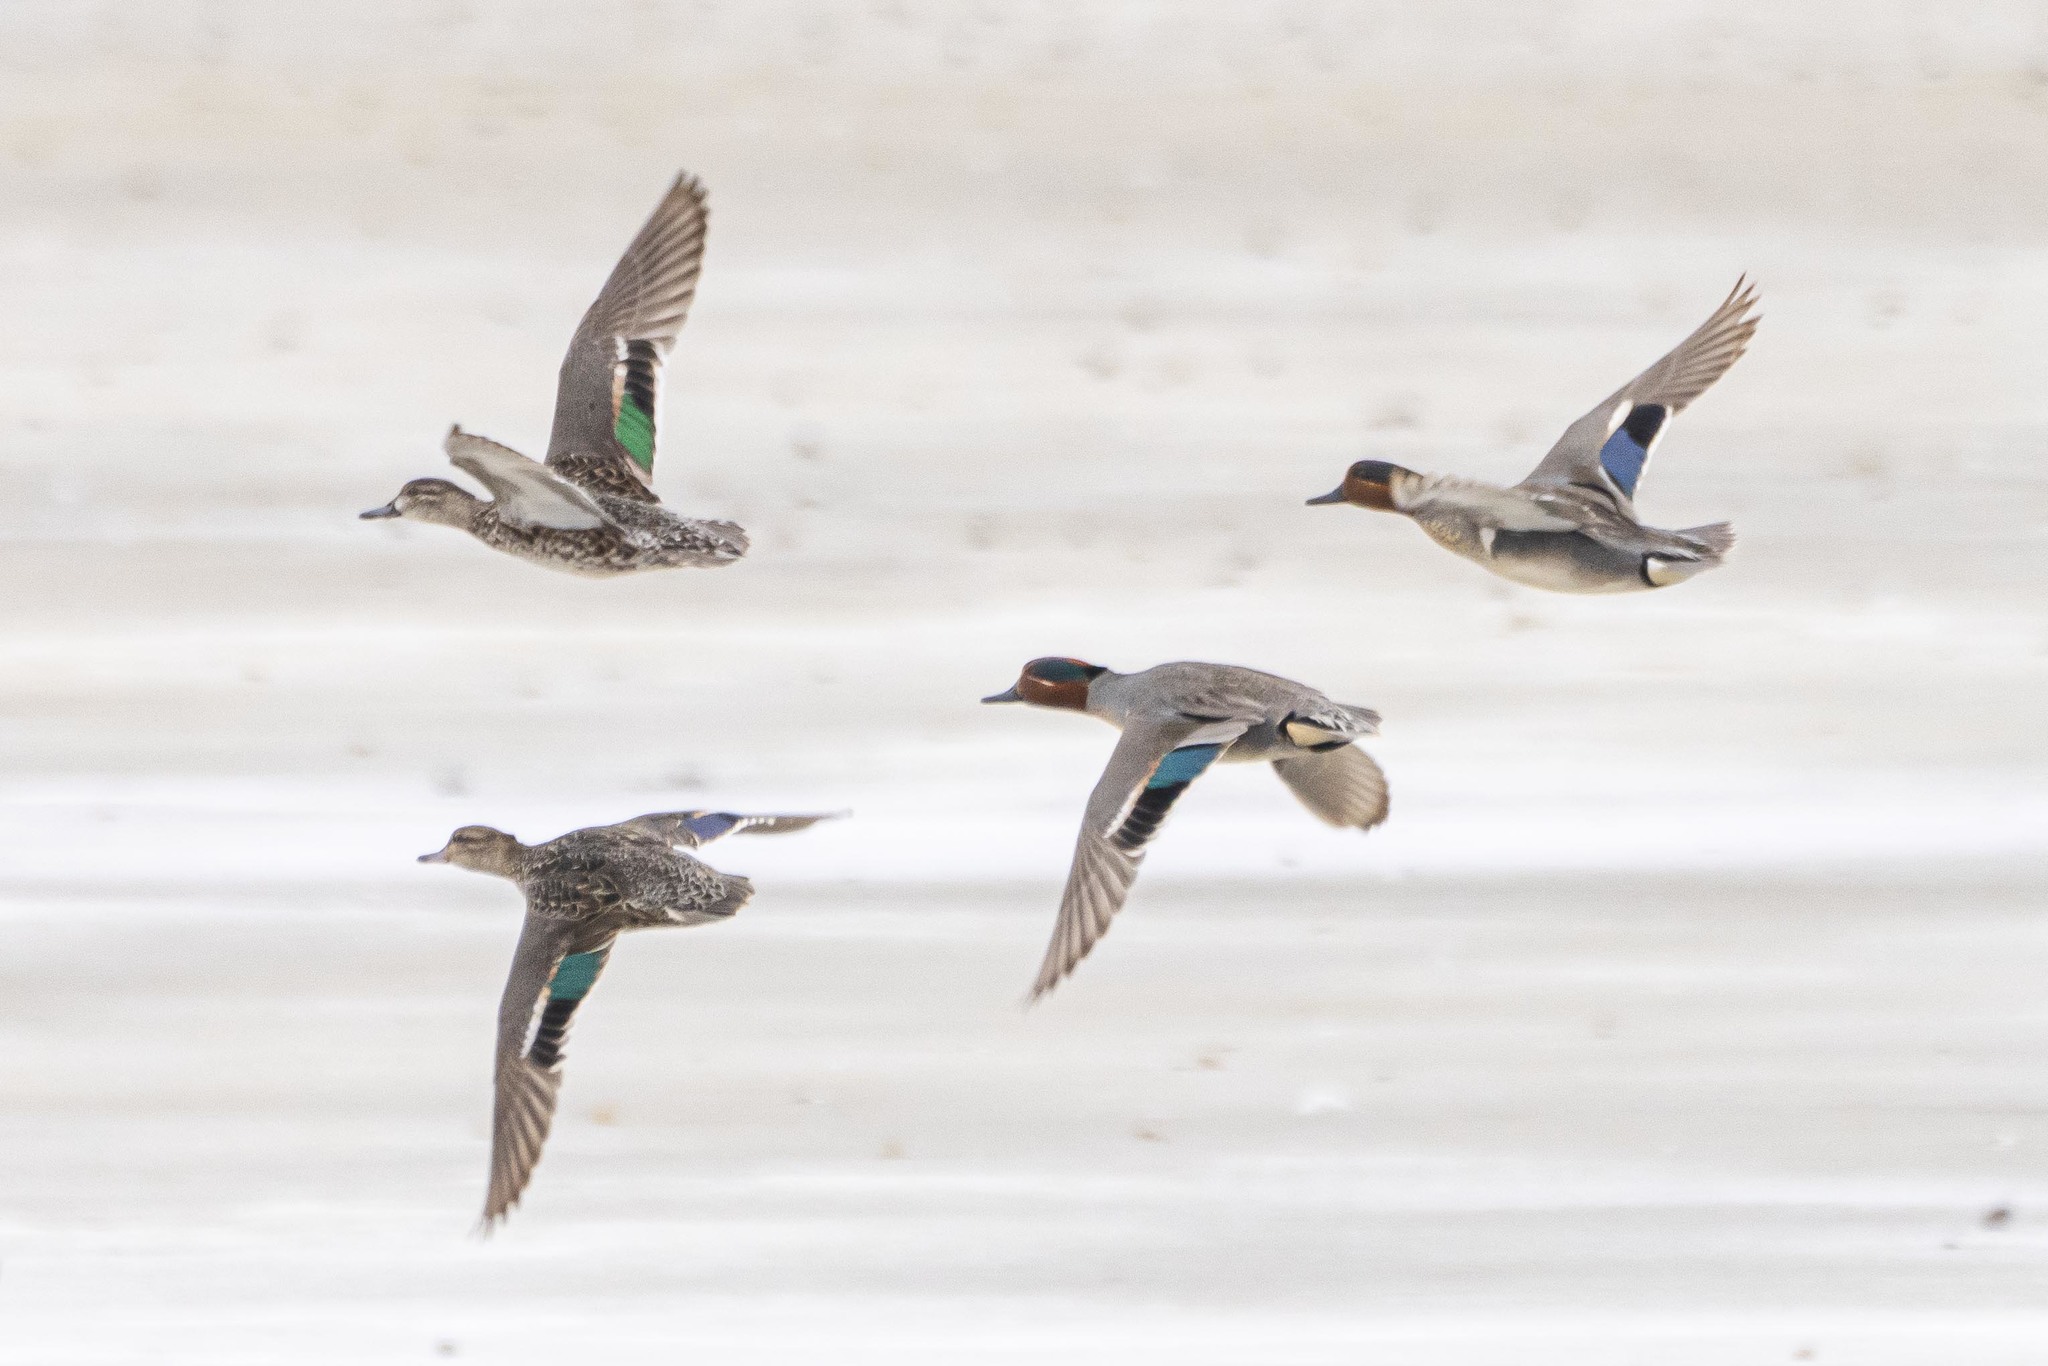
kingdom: Animalia
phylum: Chordata
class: Aves
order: Anseriformes
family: Anatidae
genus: Anas
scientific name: Anas crecca
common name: Eurasian teal
